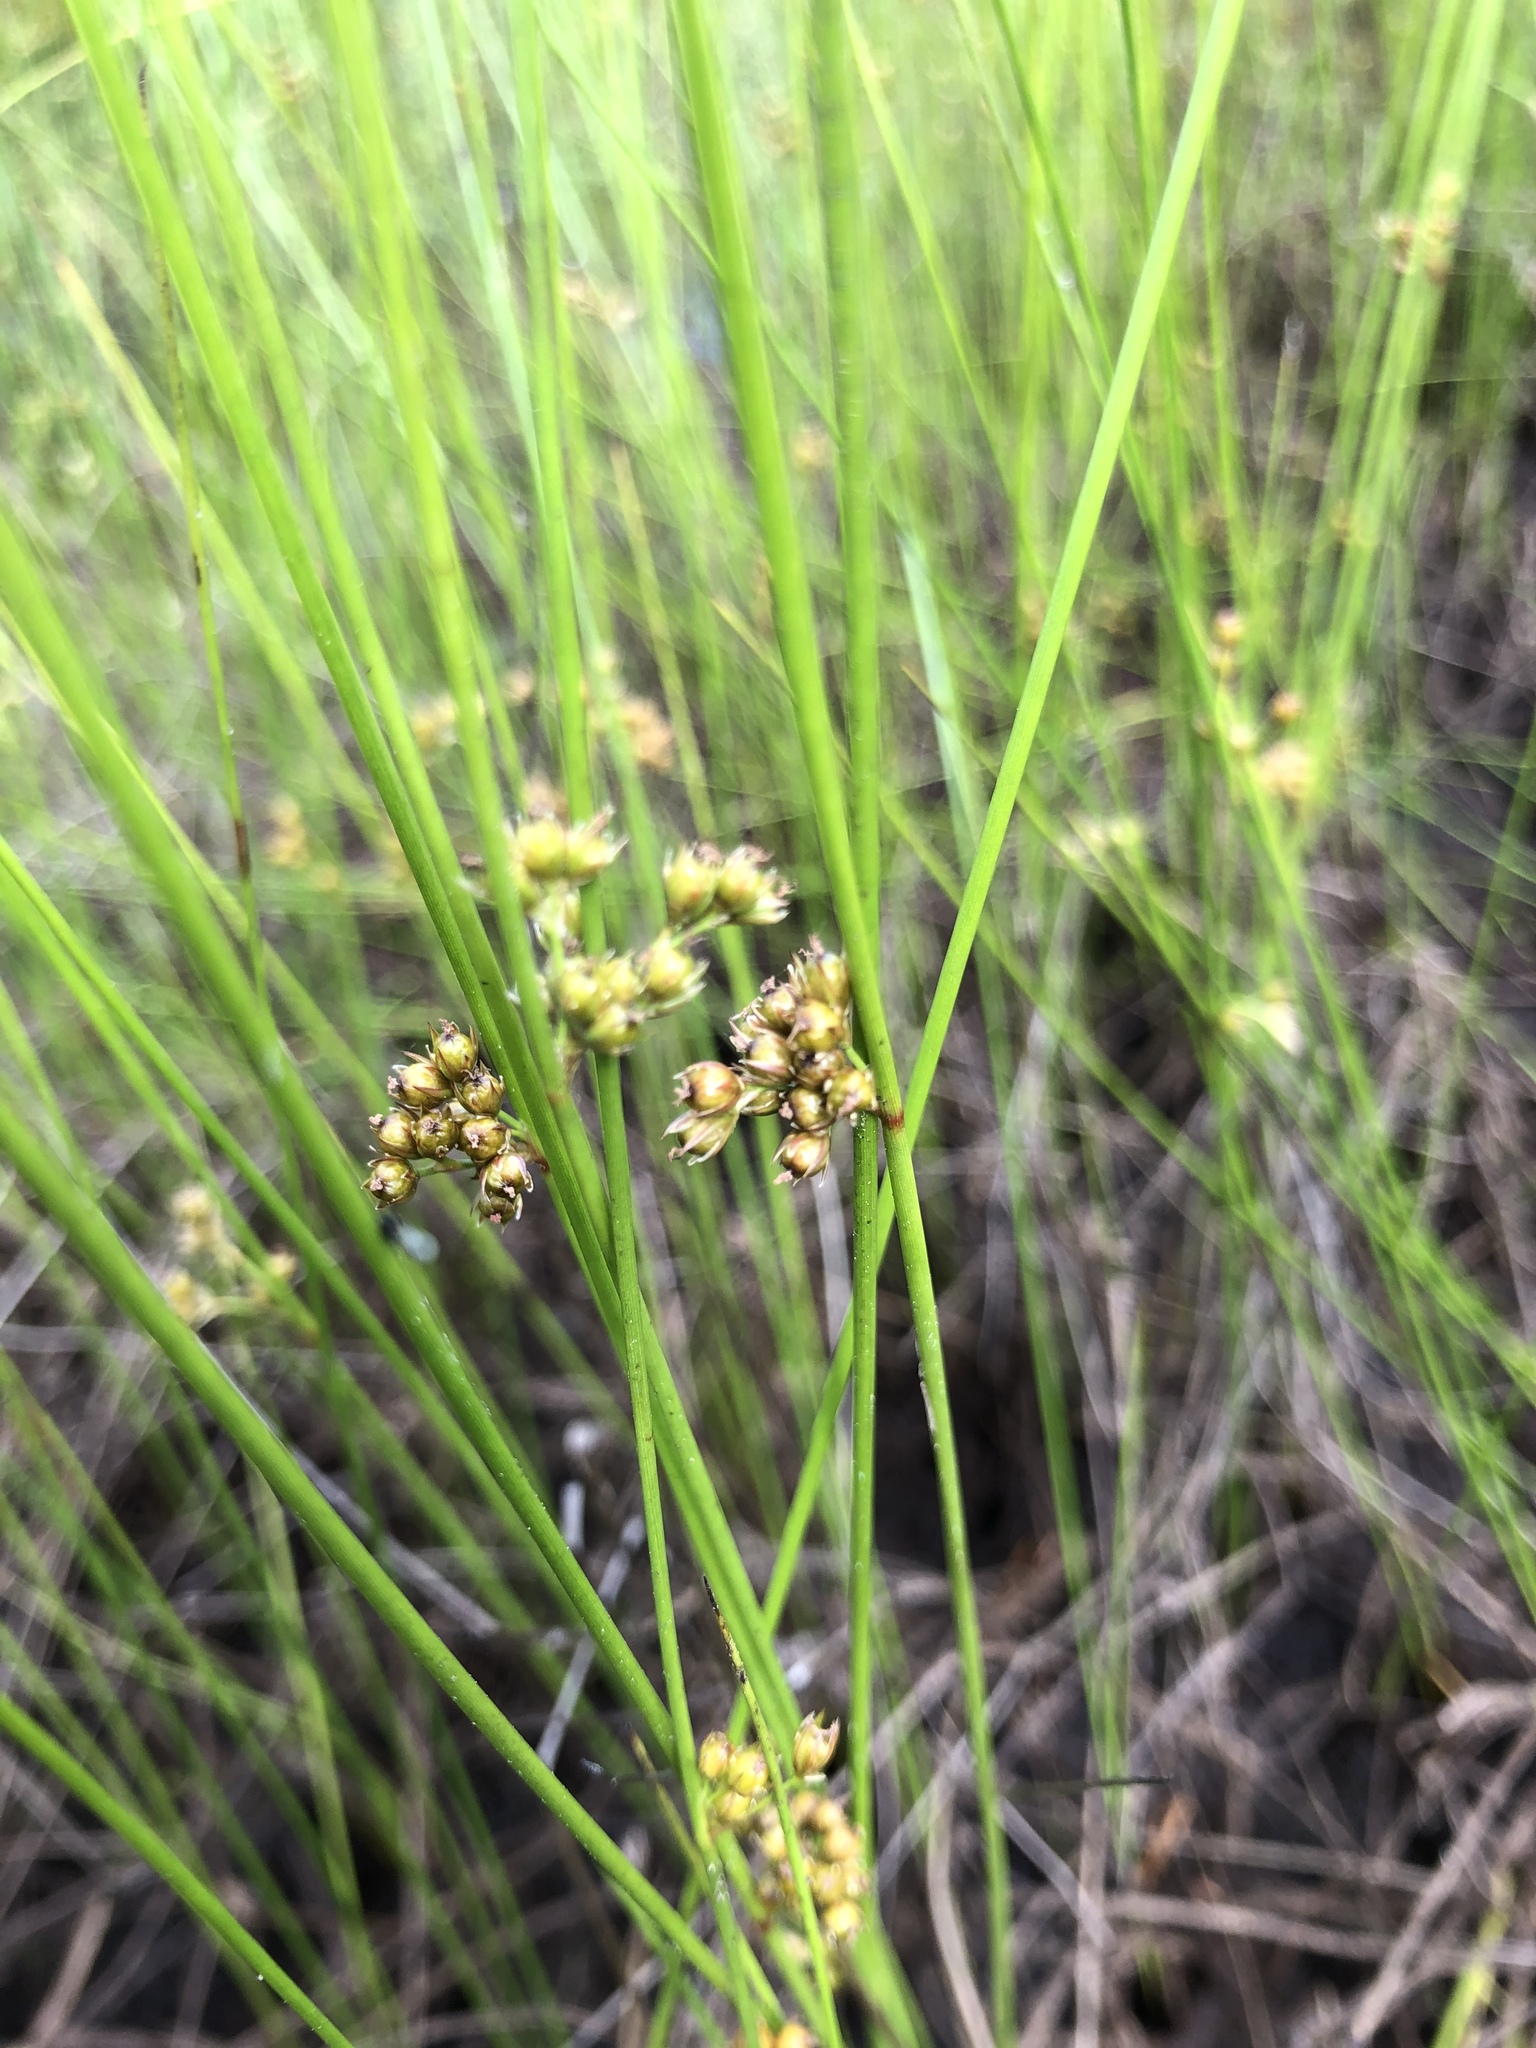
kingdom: Plantae
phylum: Tracheophyta
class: Liliopsida
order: Poales
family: Juncaceae
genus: Juncus
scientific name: Juncus filiformis
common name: Thread rush
